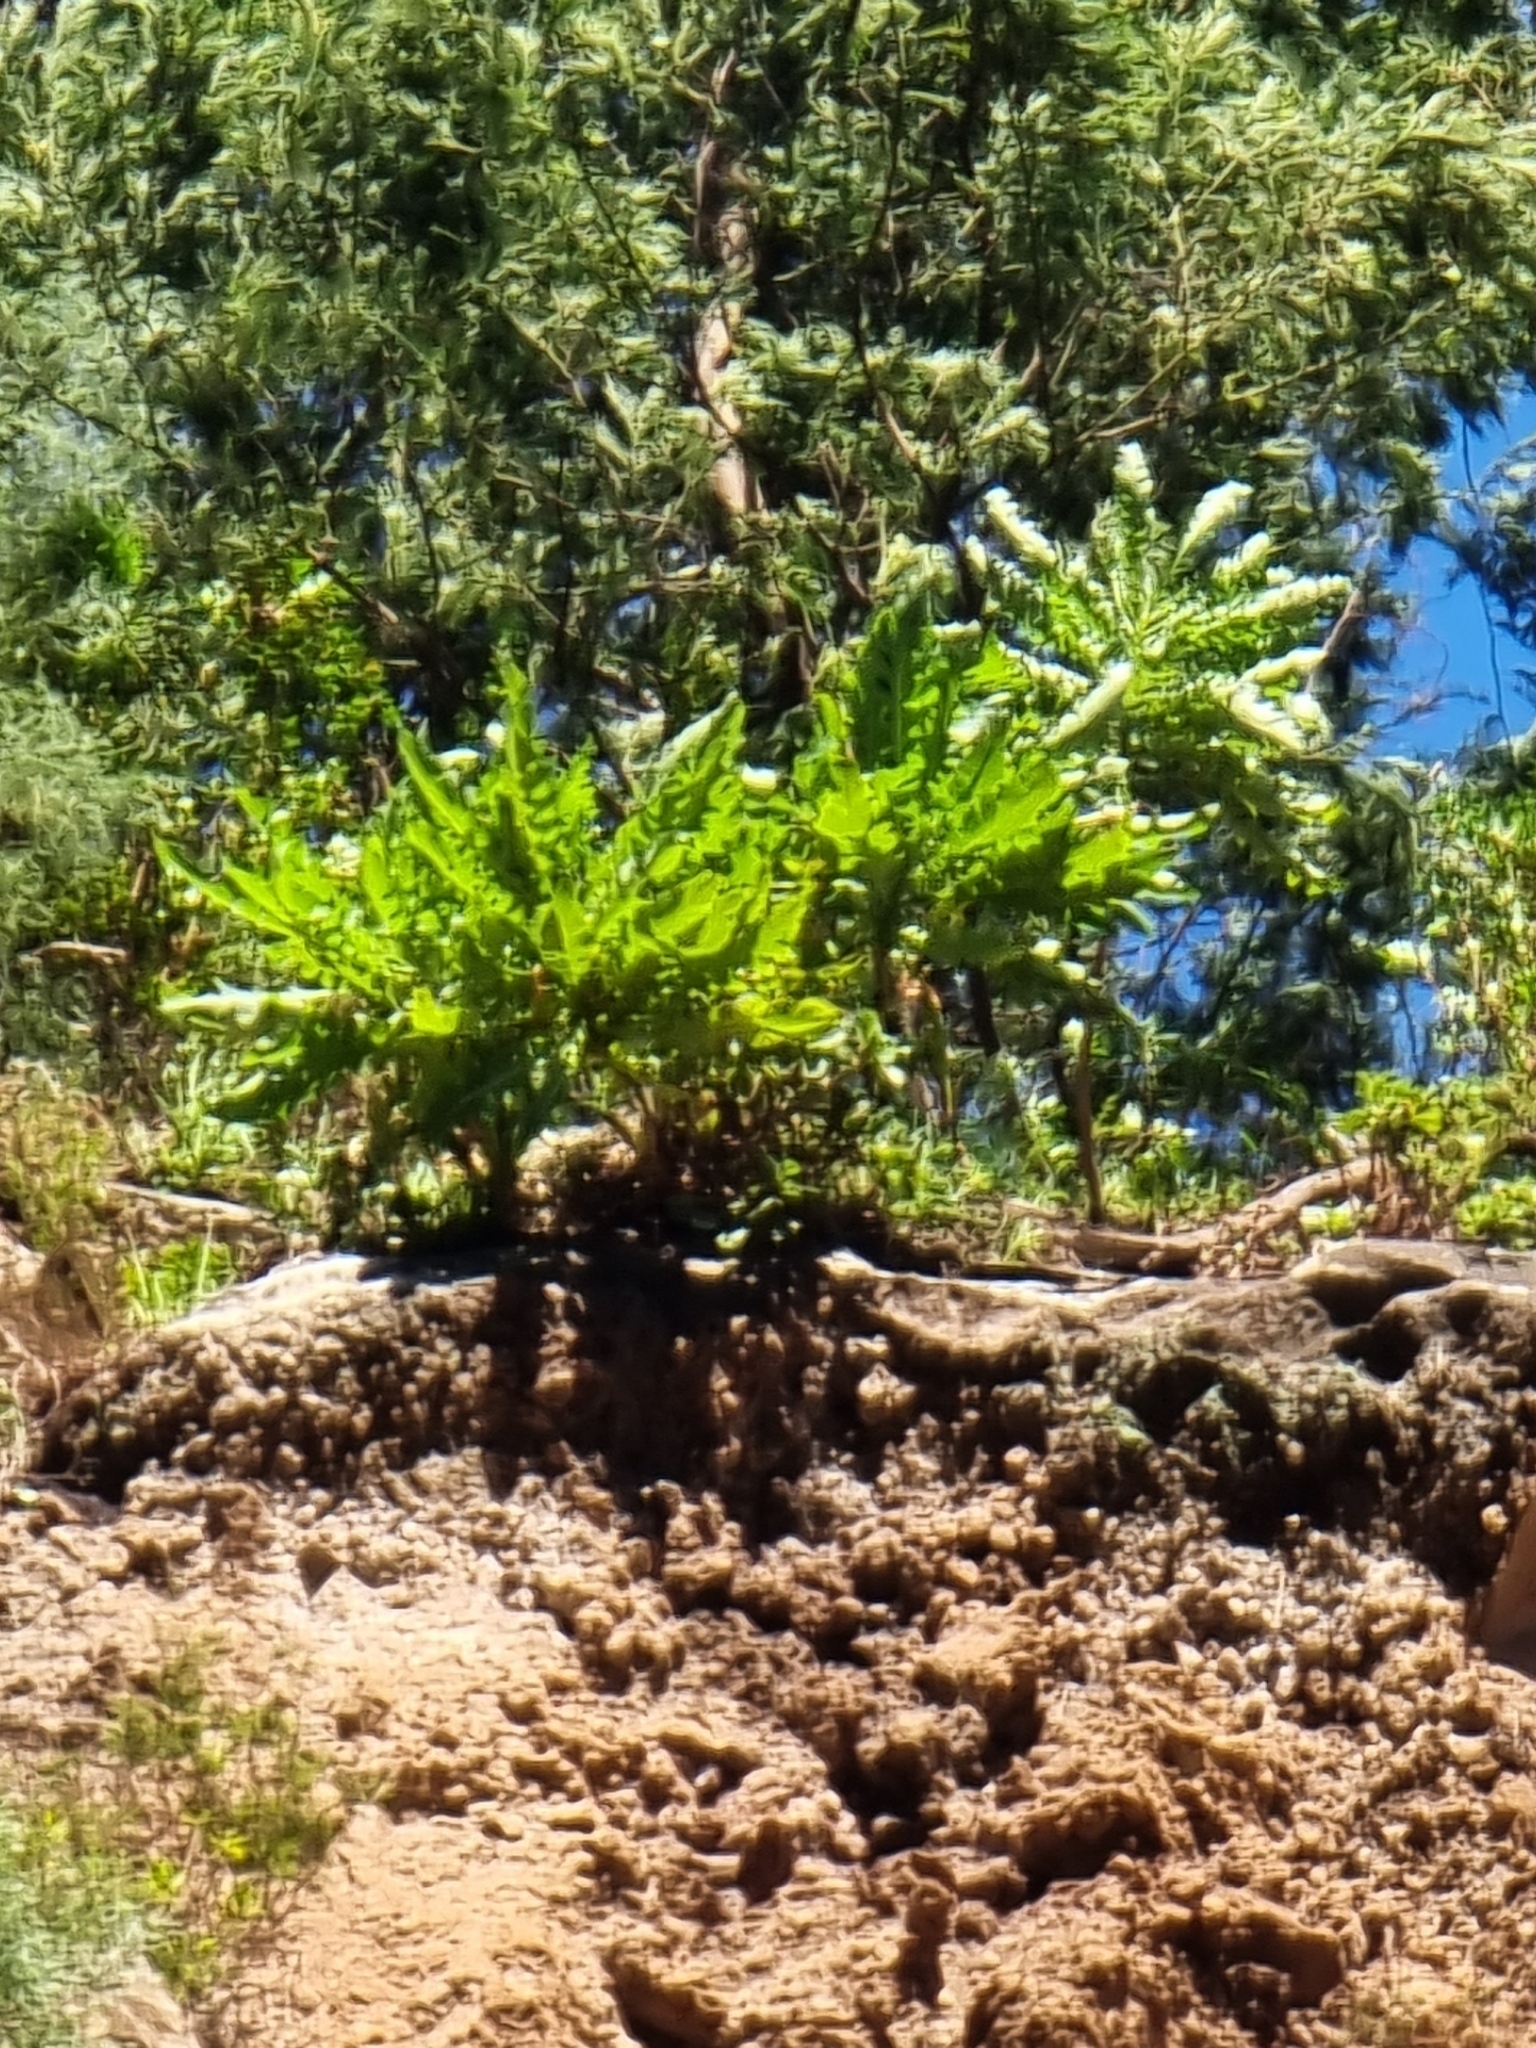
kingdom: Plantae
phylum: Tracheophyta
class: Magnoliopsida
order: Asterales
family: Asteraceae
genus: Sonchus
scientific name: Sonchus fruticosus
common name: Shrubby sow-thistle
